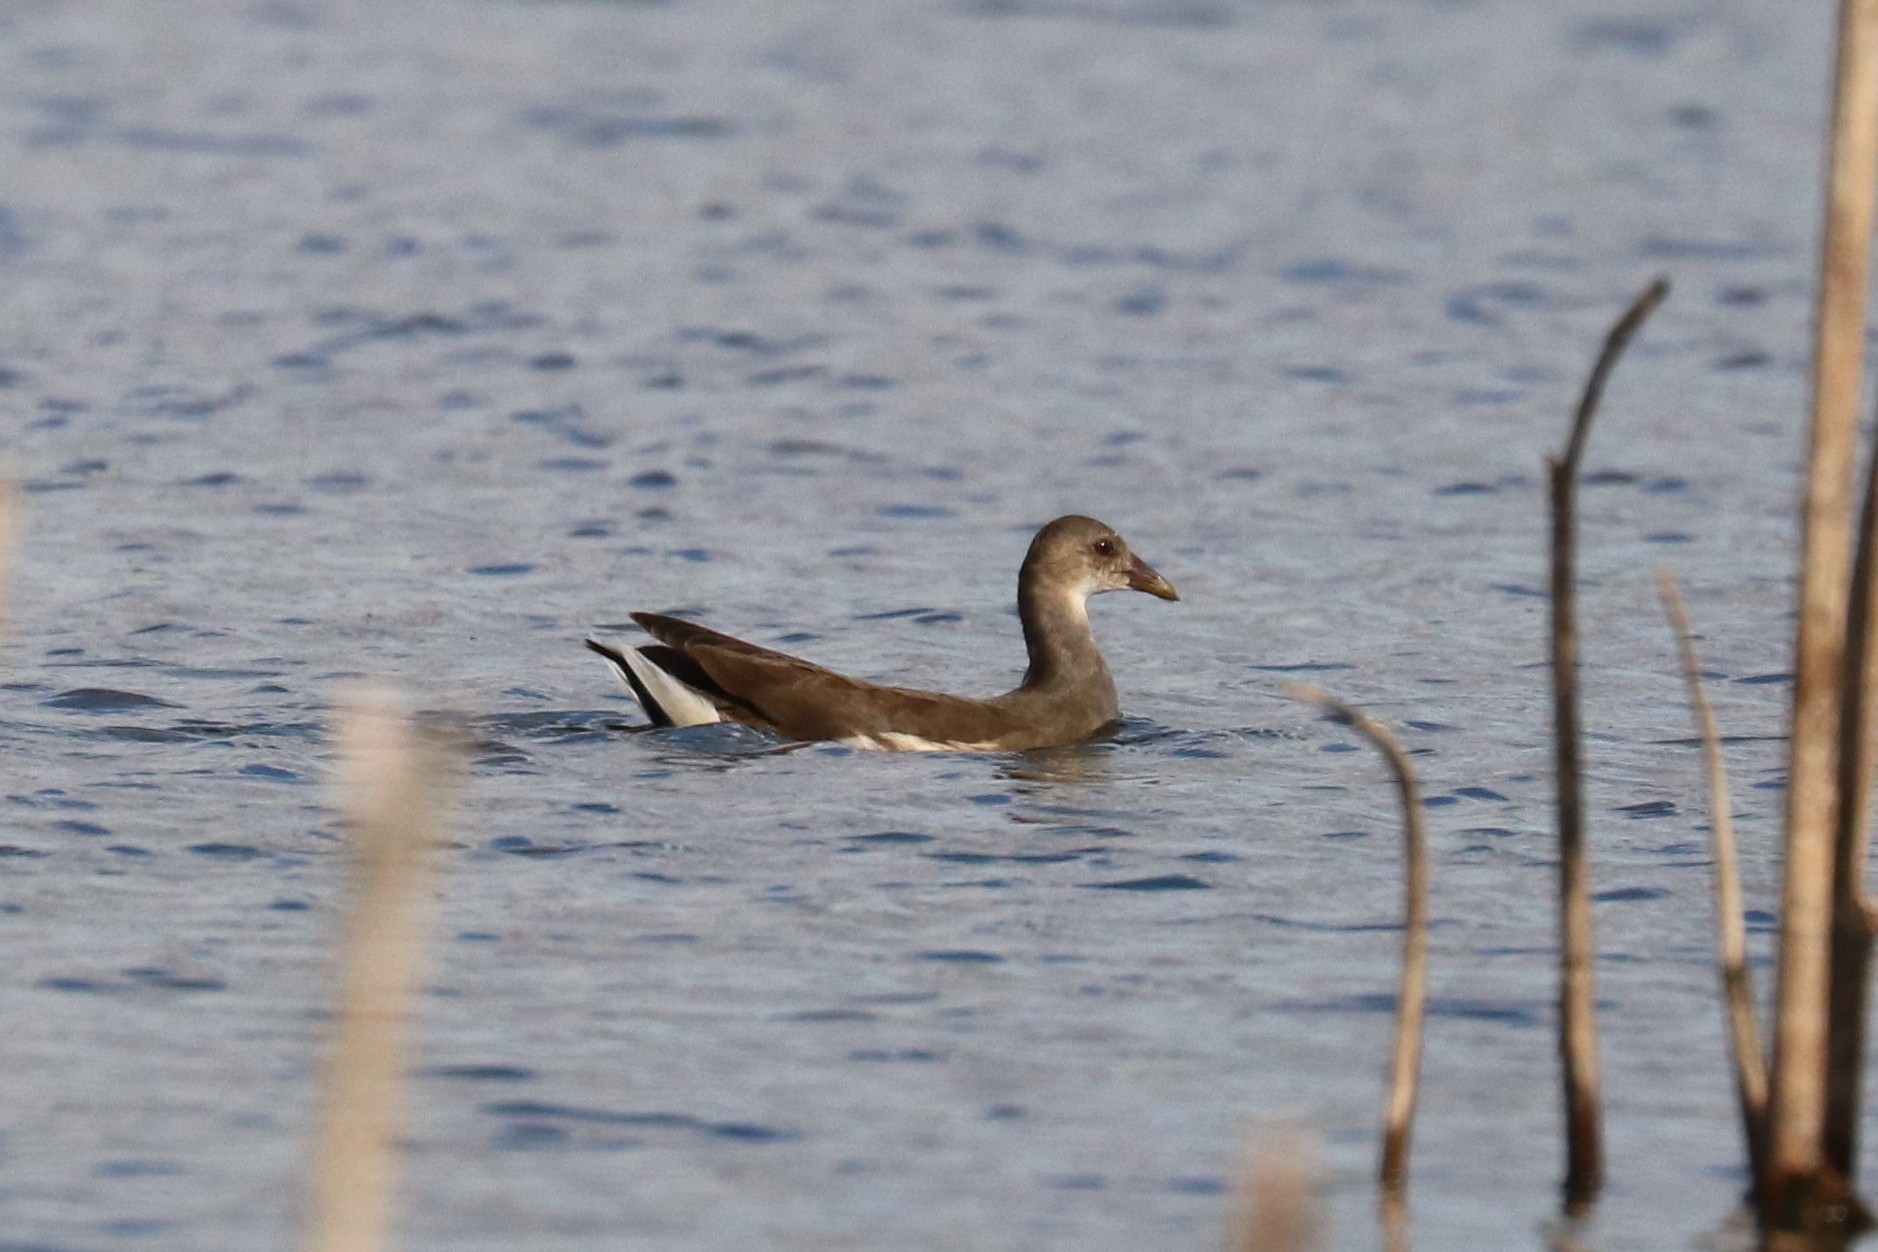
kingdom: Animalia
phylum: Chordata
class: Aves
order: Gruiformes
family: Rallidae
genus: Gallinula
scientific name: Gallinula chloropus
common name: Common moorhen
